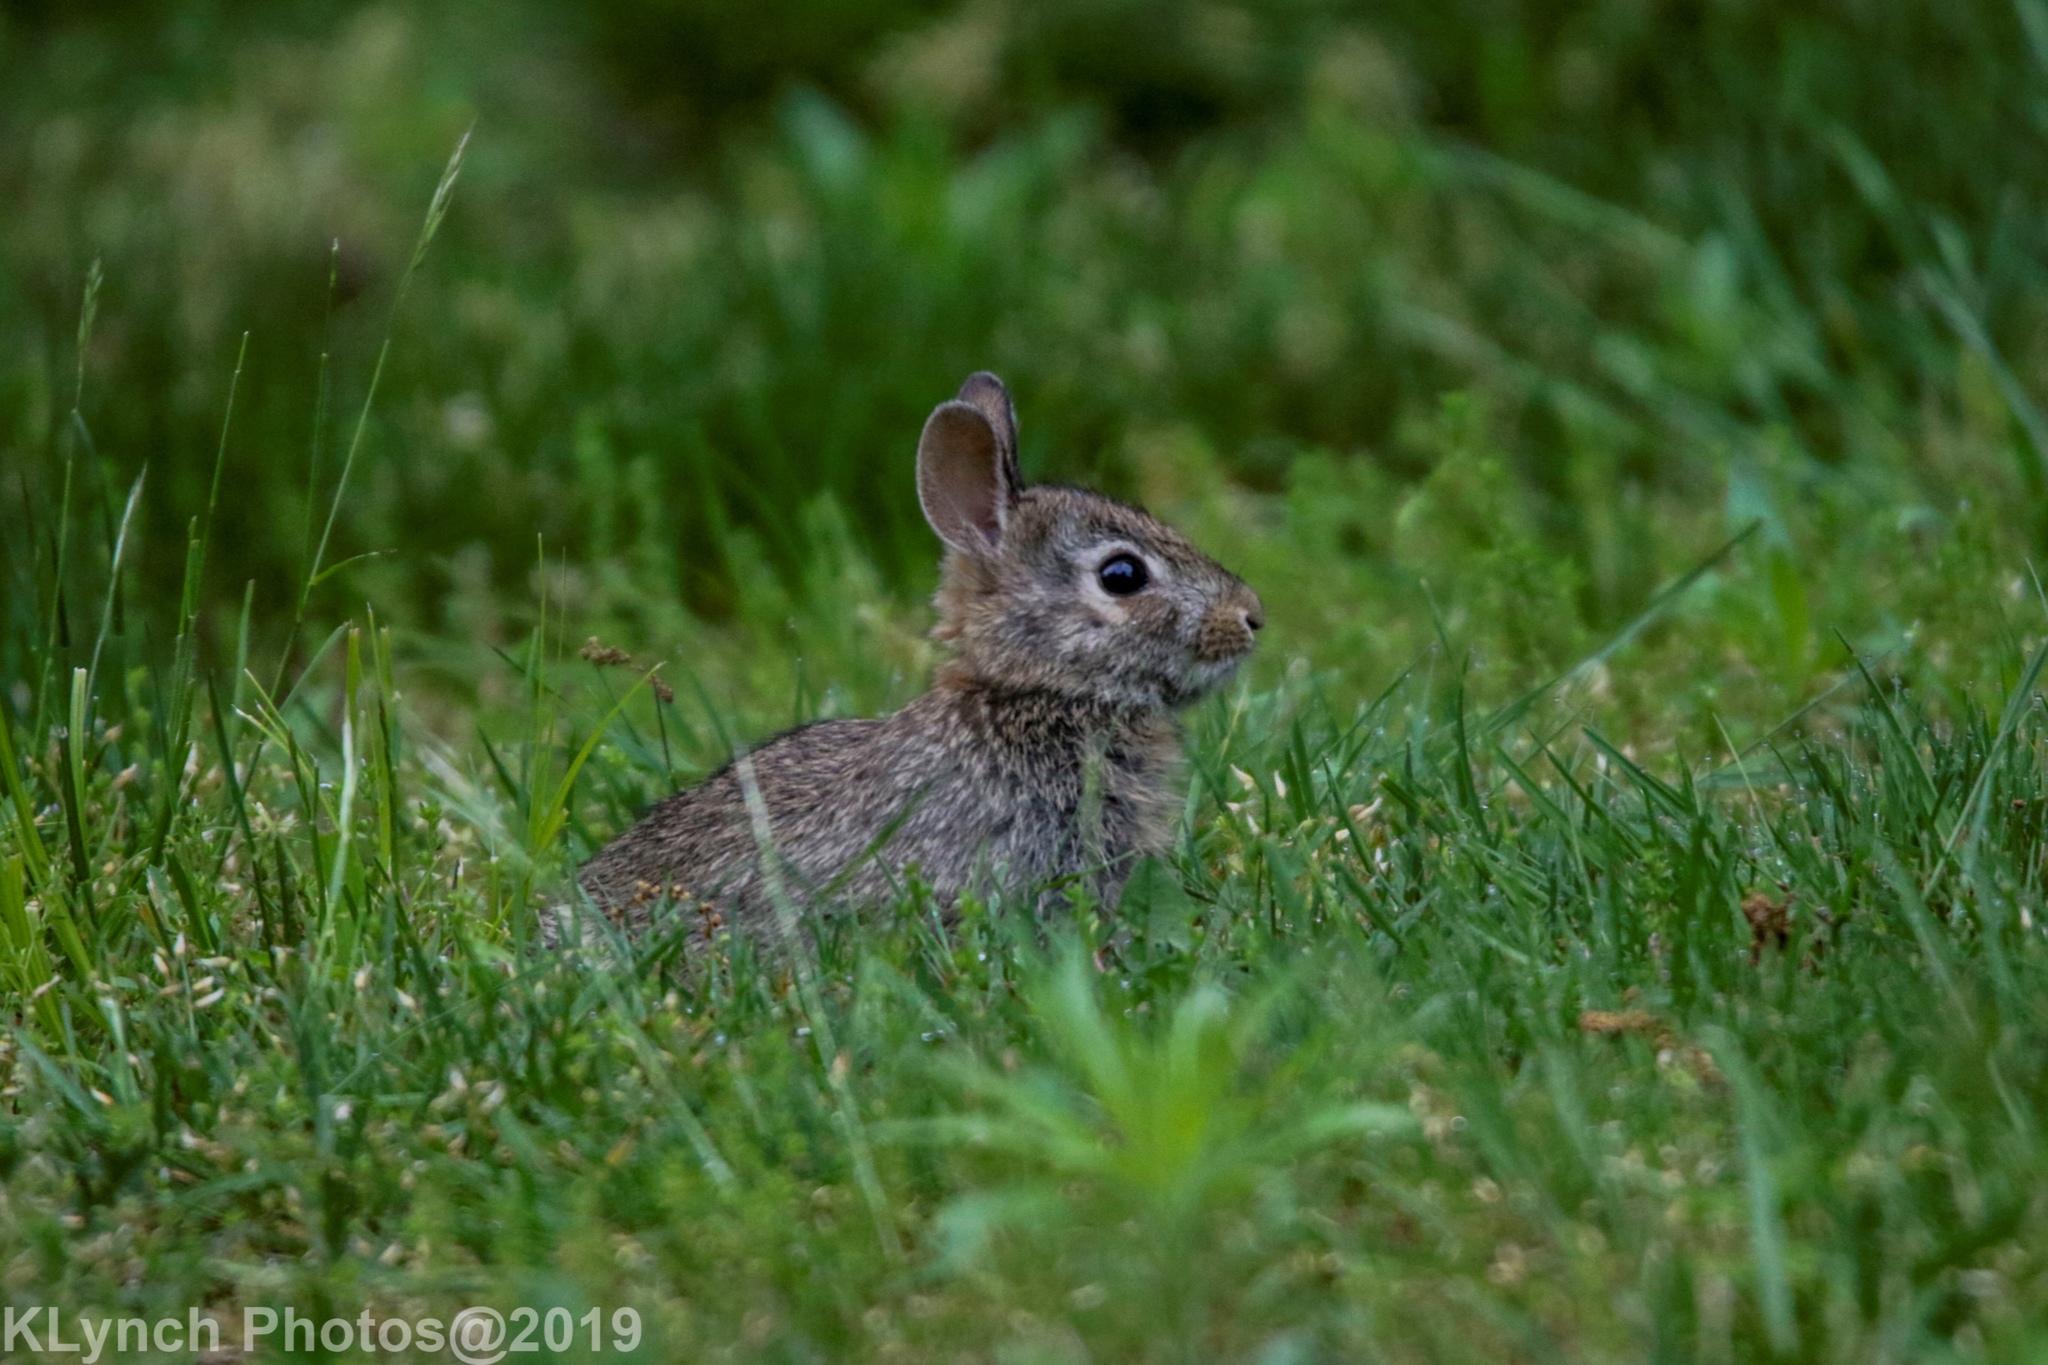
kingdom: Animalia
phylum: Chordata
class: Mammalia
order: Lagomorpha
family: Leporidae
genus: Sylvilagus
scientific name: Sylvilagus floridanus
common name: Eastern cottontail
